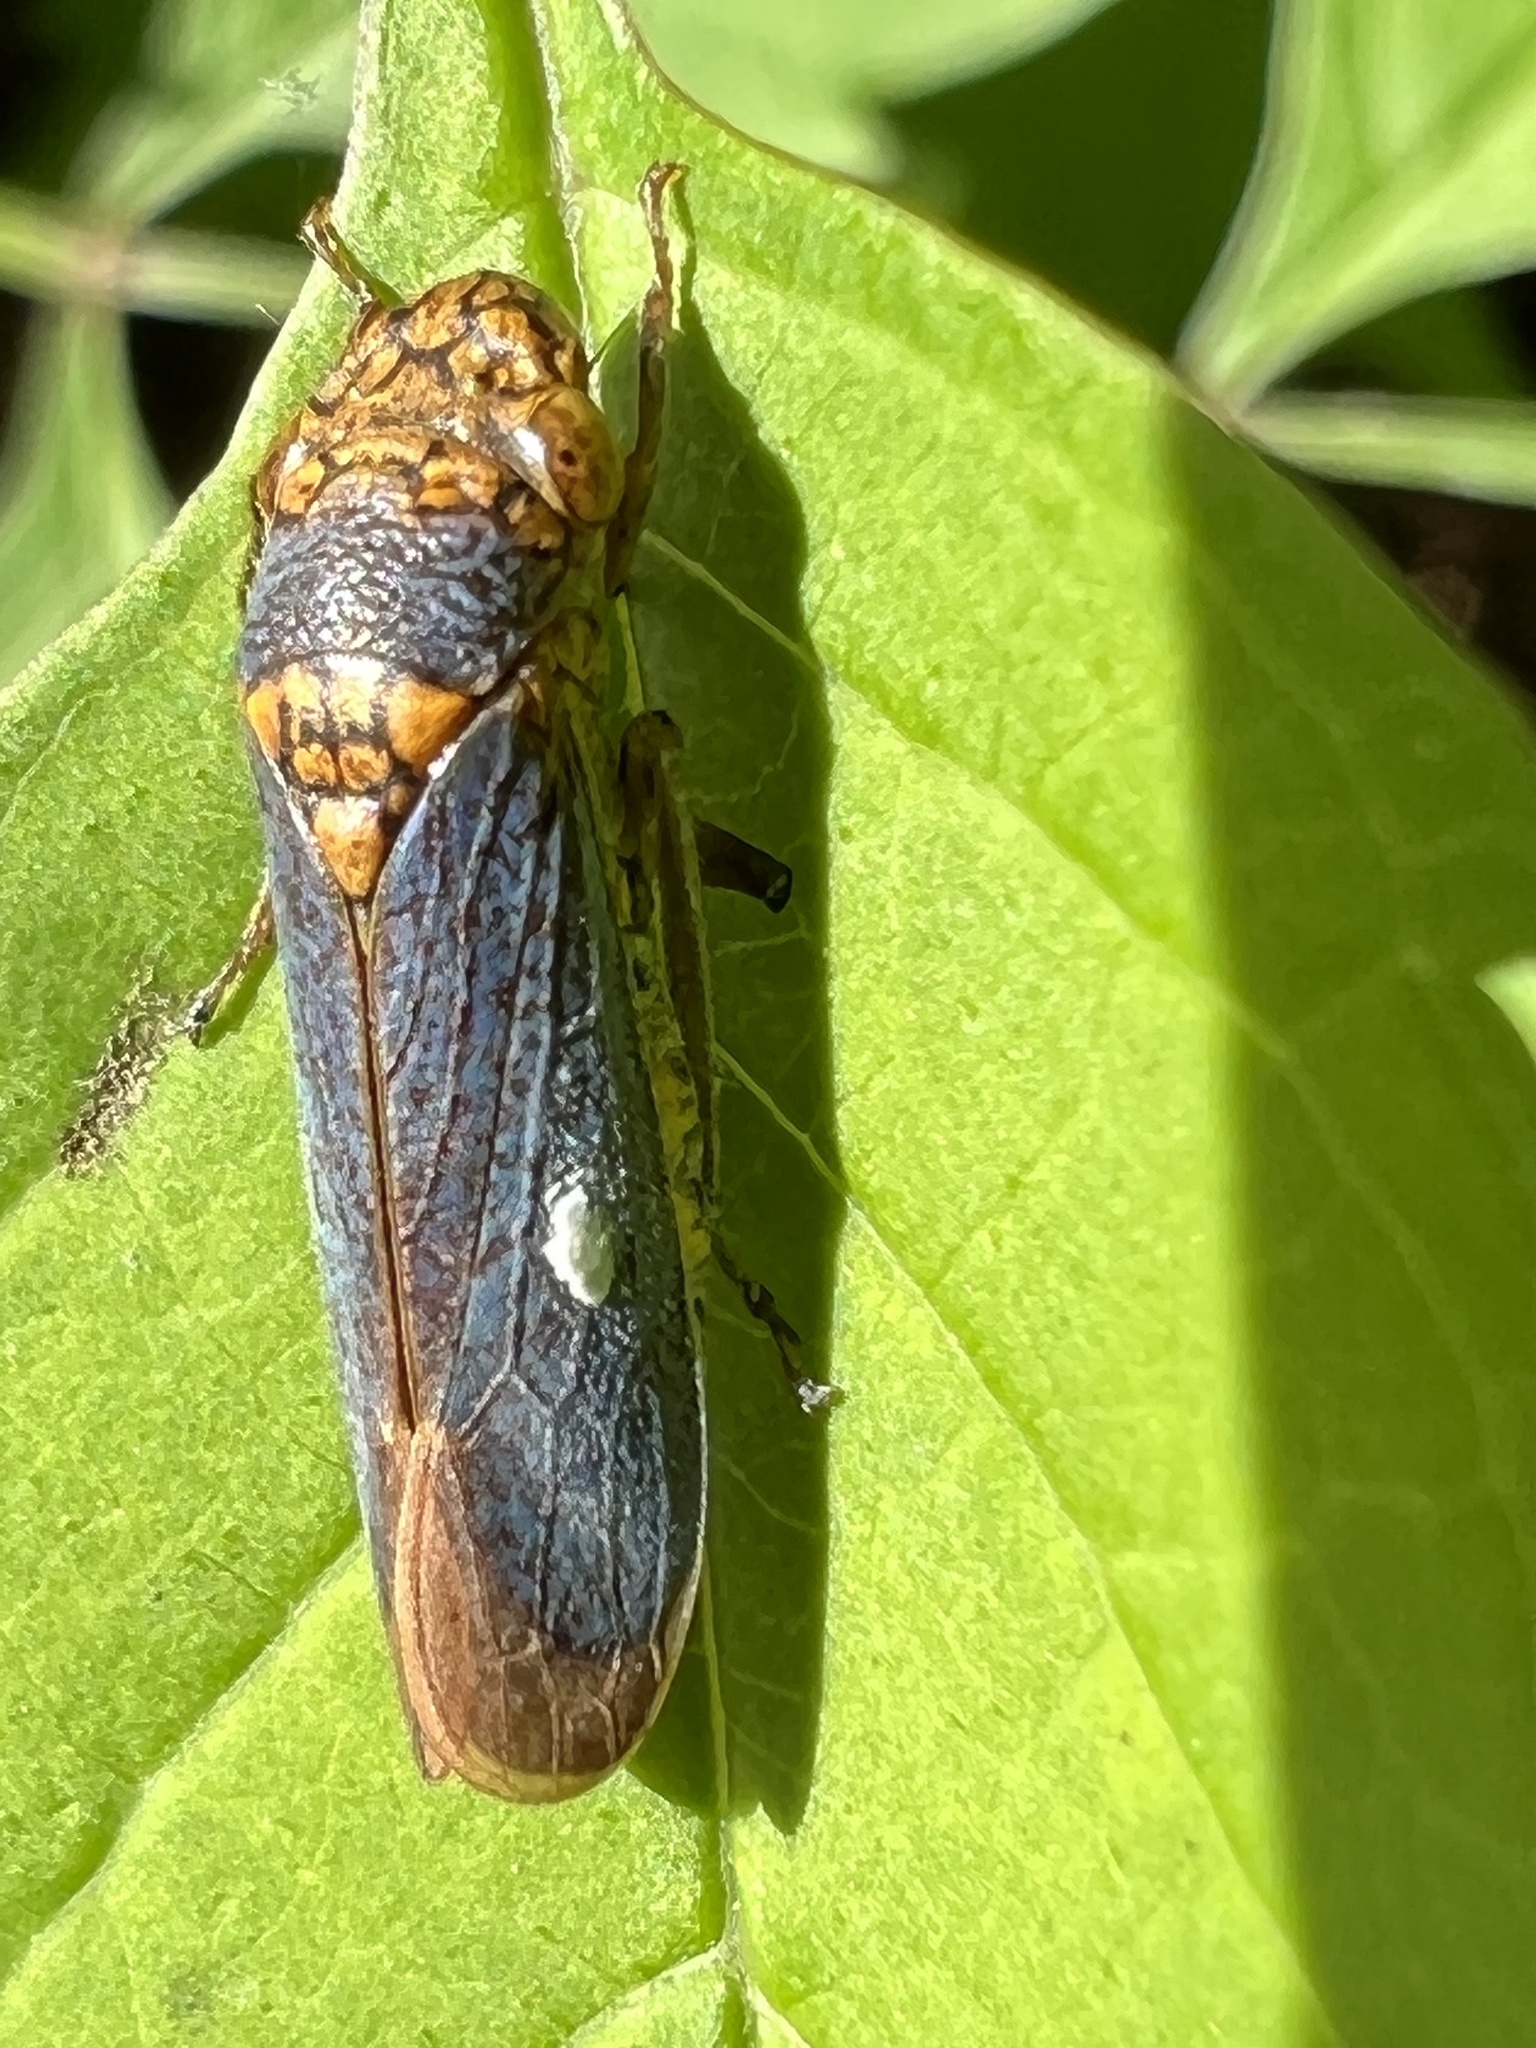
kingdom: Animalia
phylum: Arthropoda
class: Insecta
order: Hemiptera
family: Cicadellidae
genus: Oncometopia
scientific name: Oncometopia orbona
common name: Broad-headed sharpshooter
